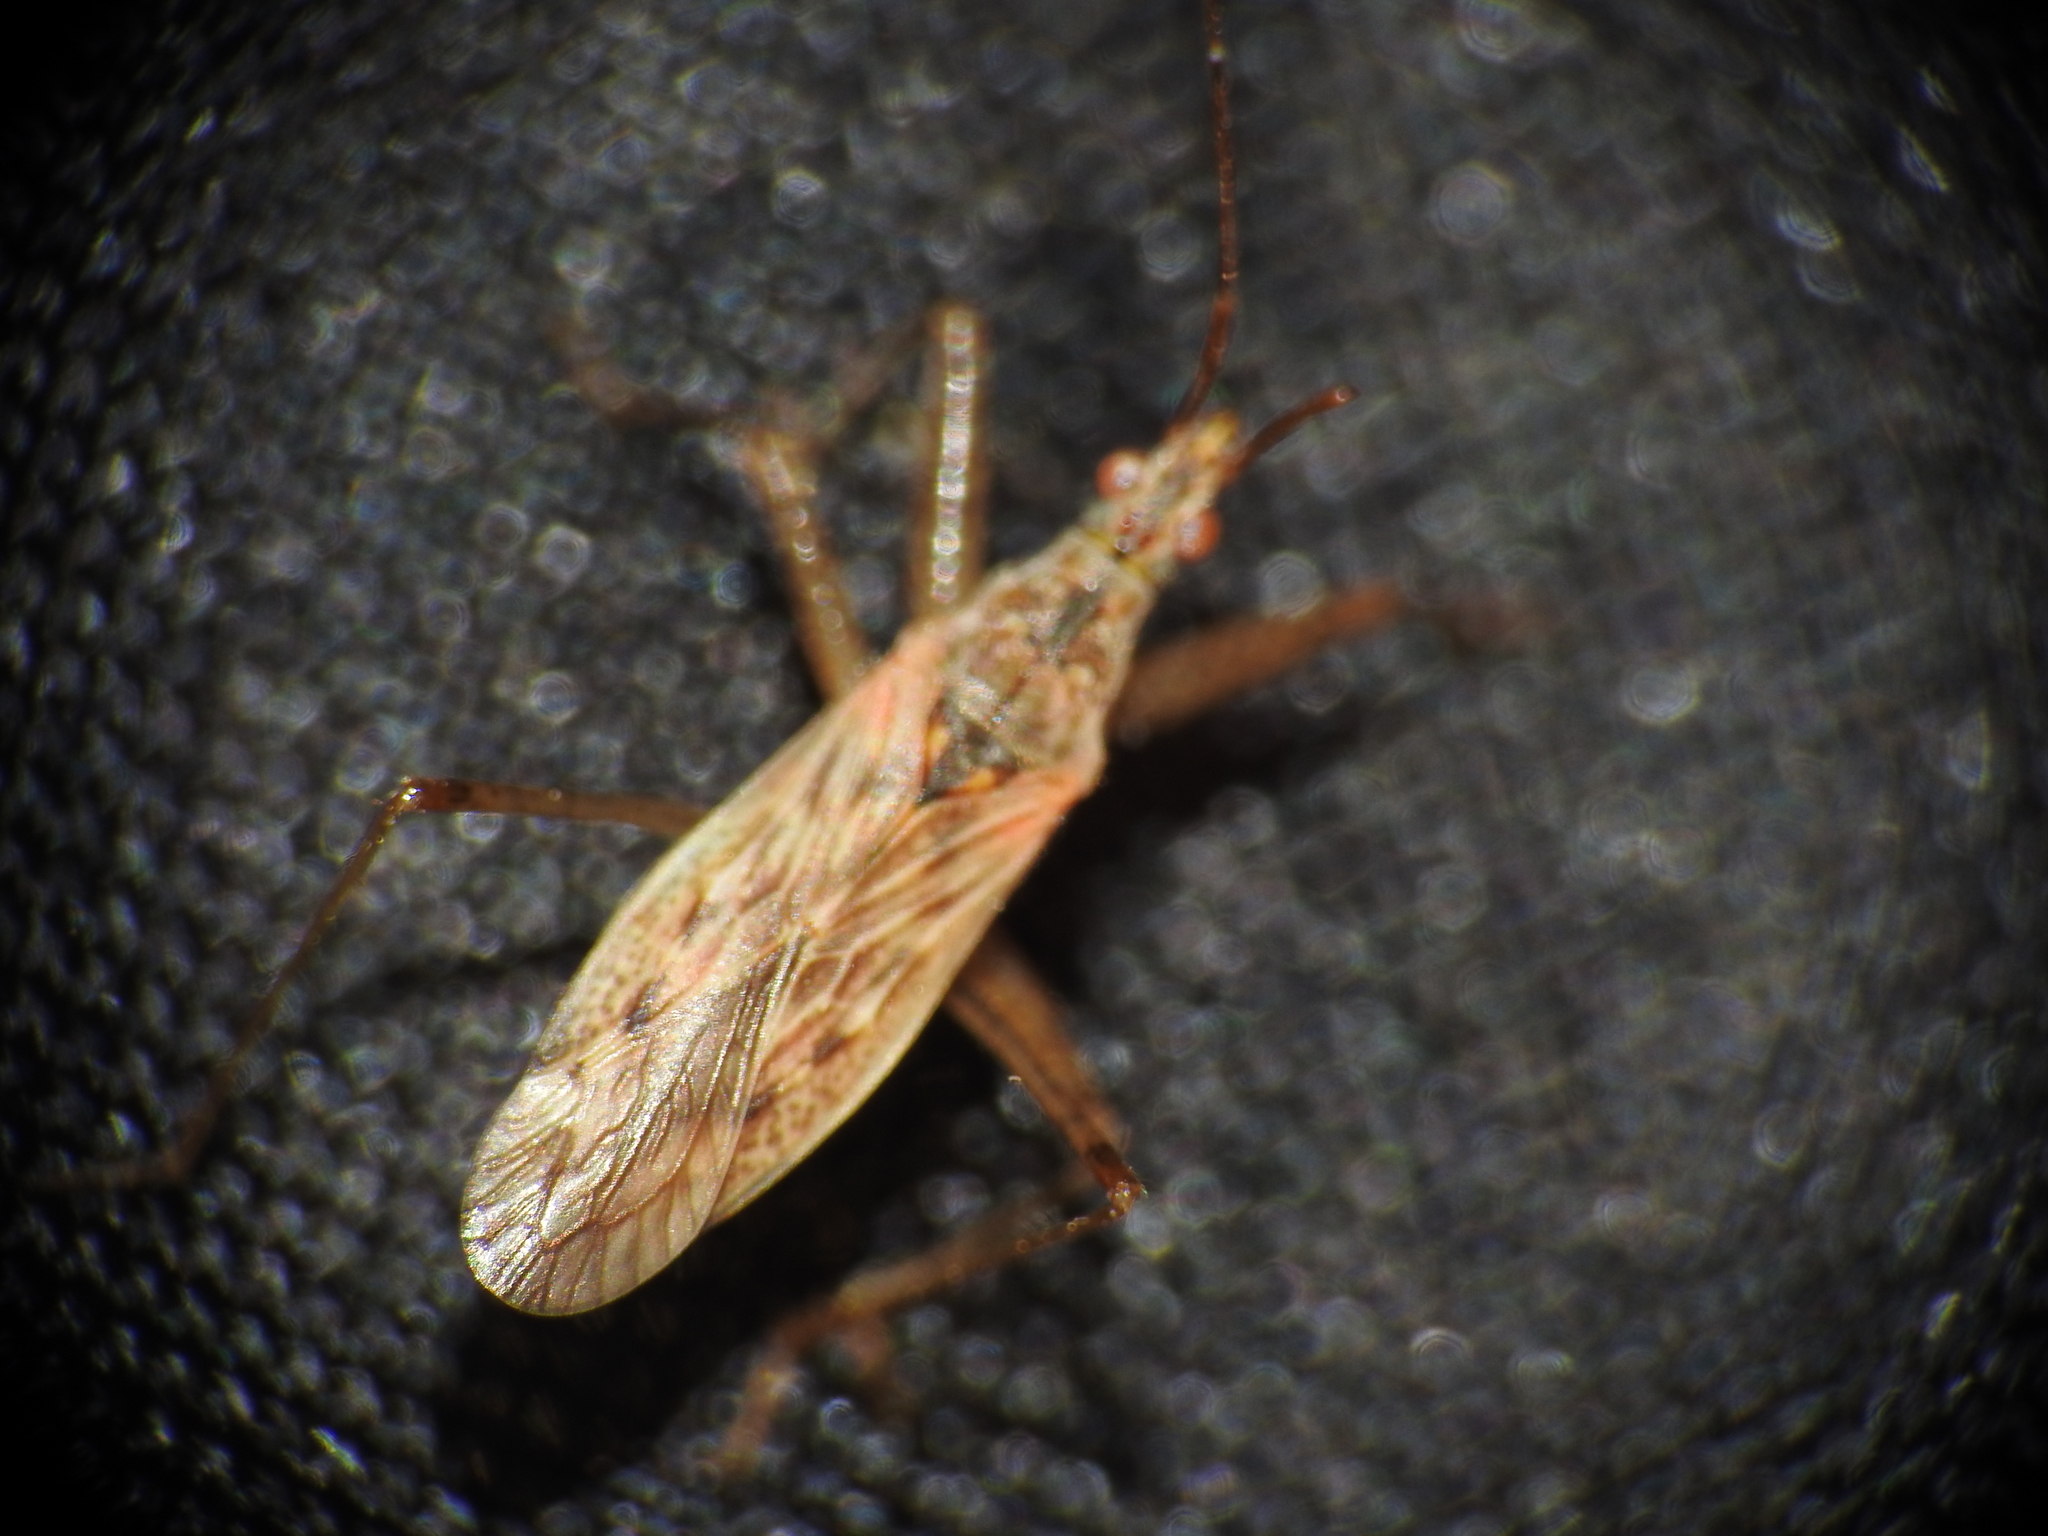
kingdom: Animalia
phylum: Arthropoda
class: Insecta
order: Hemiptera
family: Nabidae
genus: Nabis
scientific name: Nabis roseipennis
